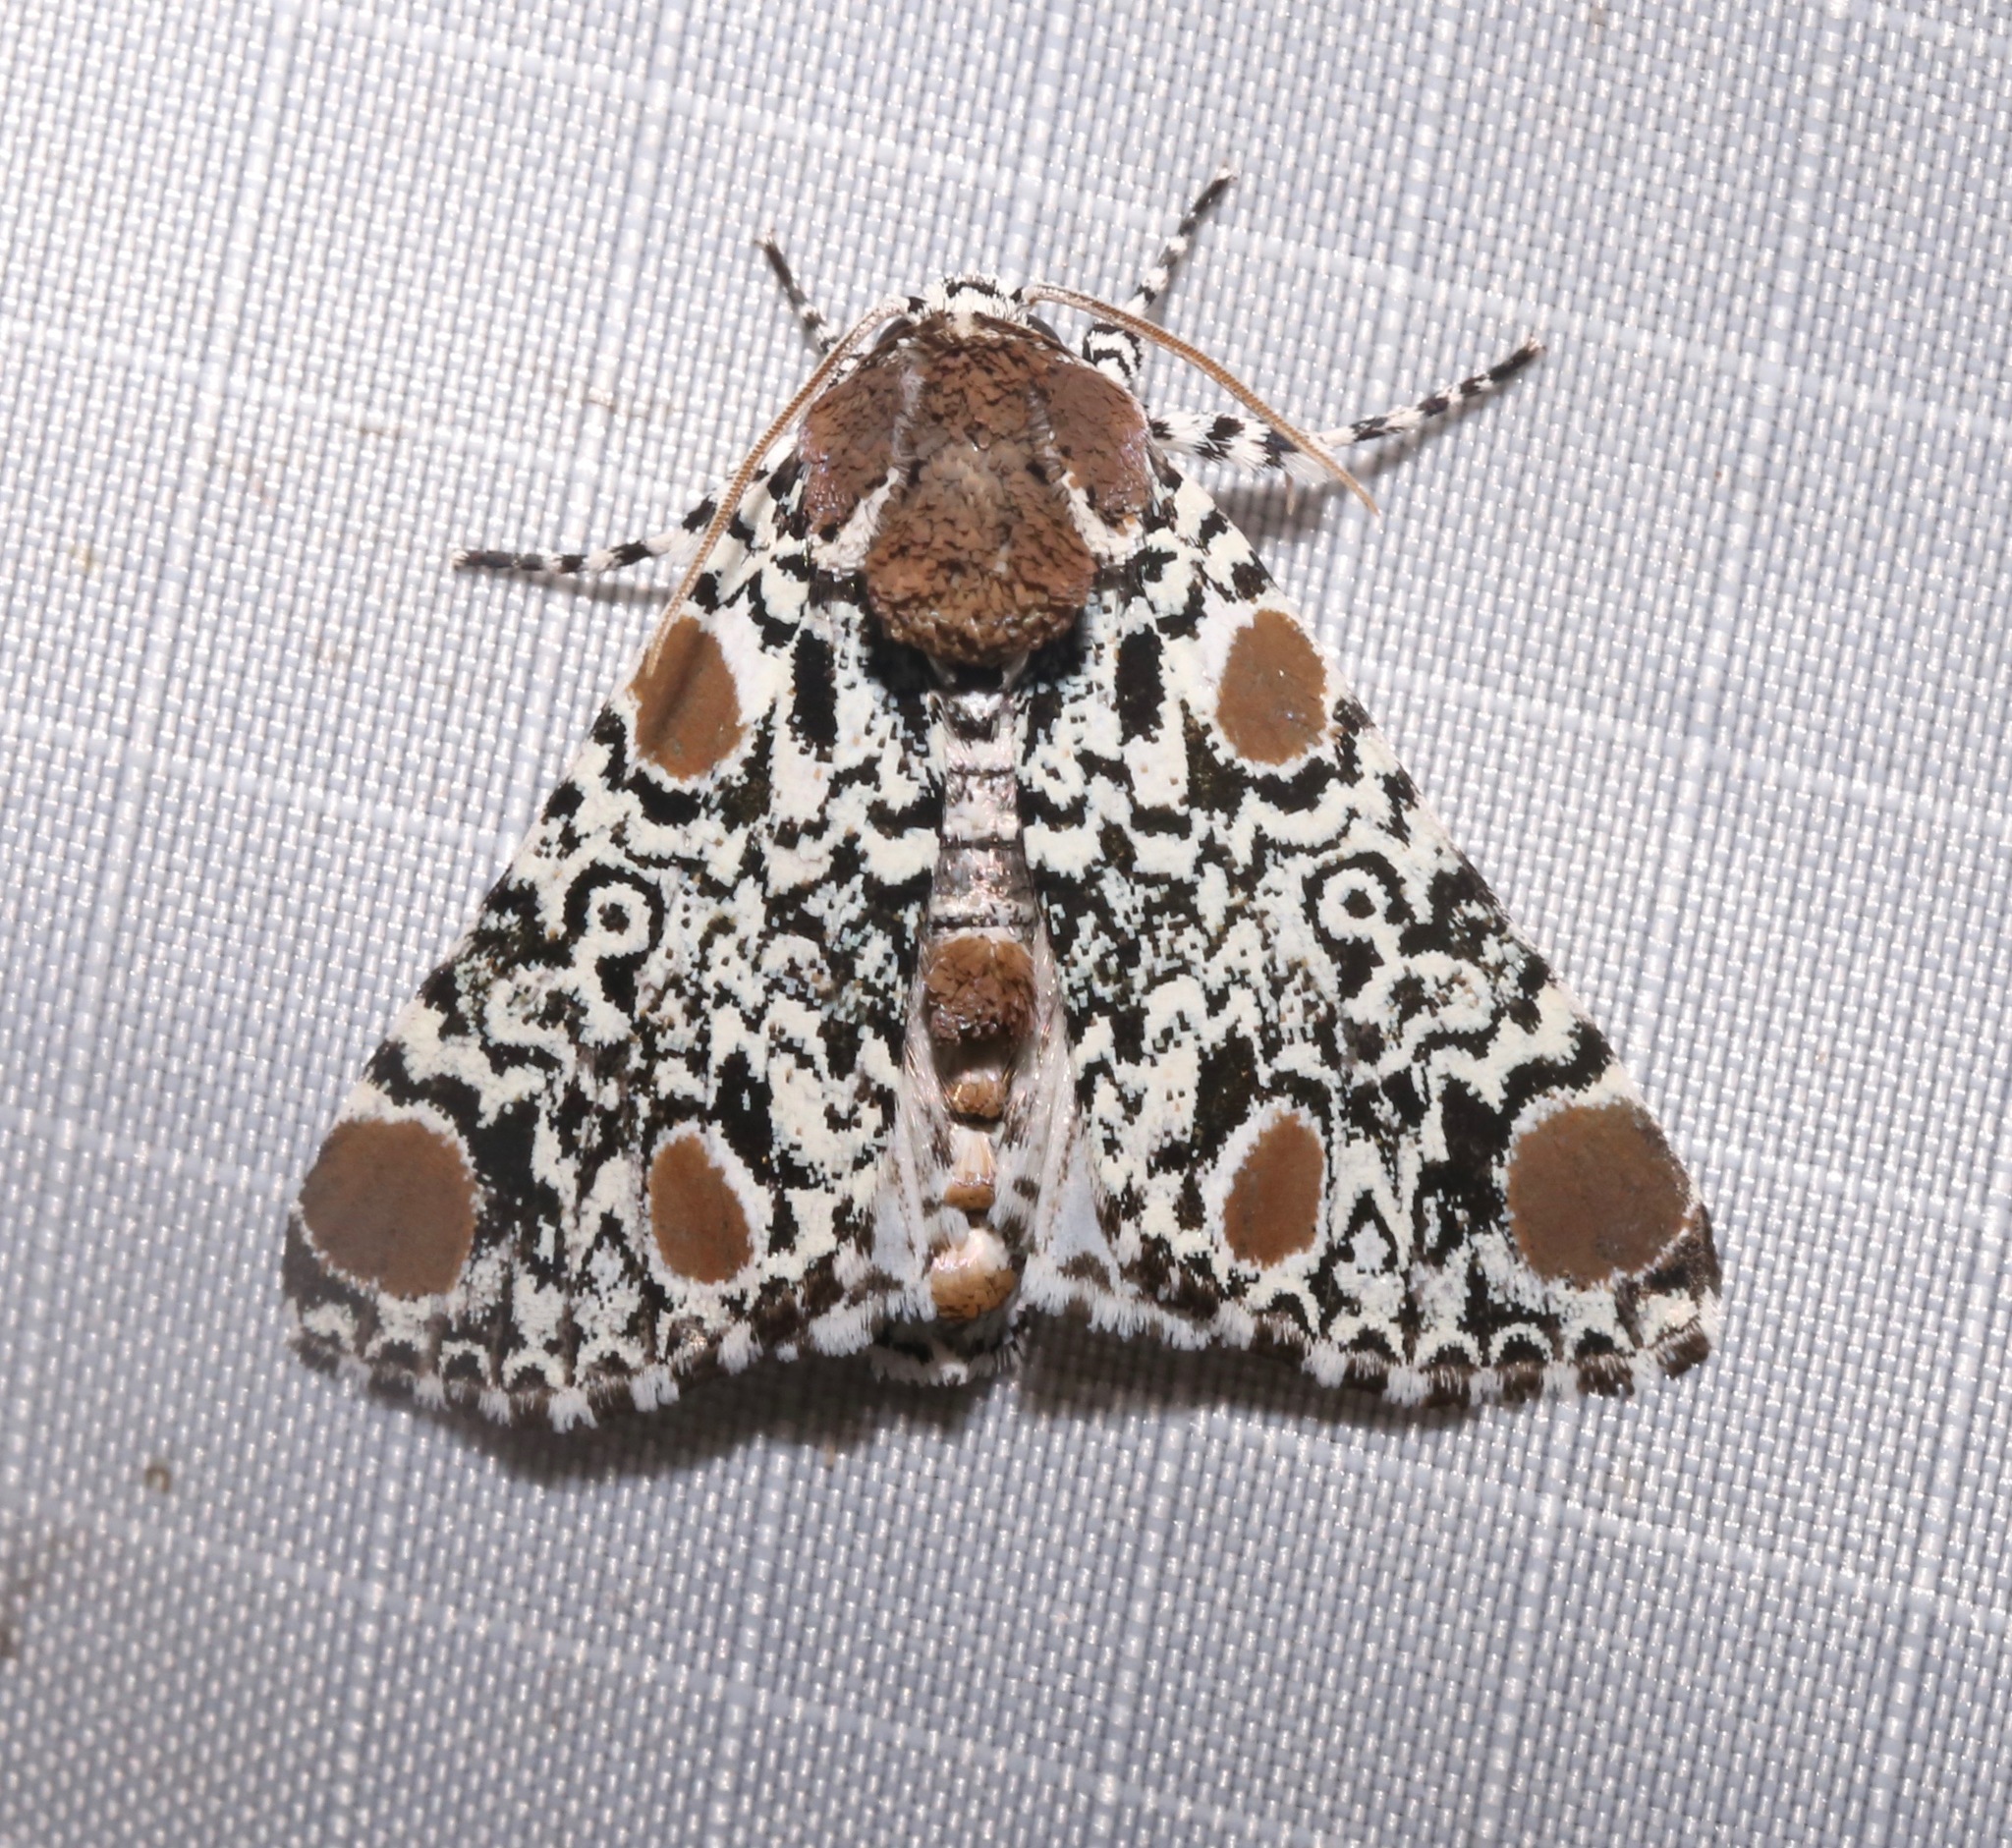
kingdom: Animalia
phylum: Arthropoda
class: Insecta
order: Lepidoptera
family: Noctuidae
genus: Harrisimemna
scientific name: Harrisimemna trisignata
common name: Harris threespot
